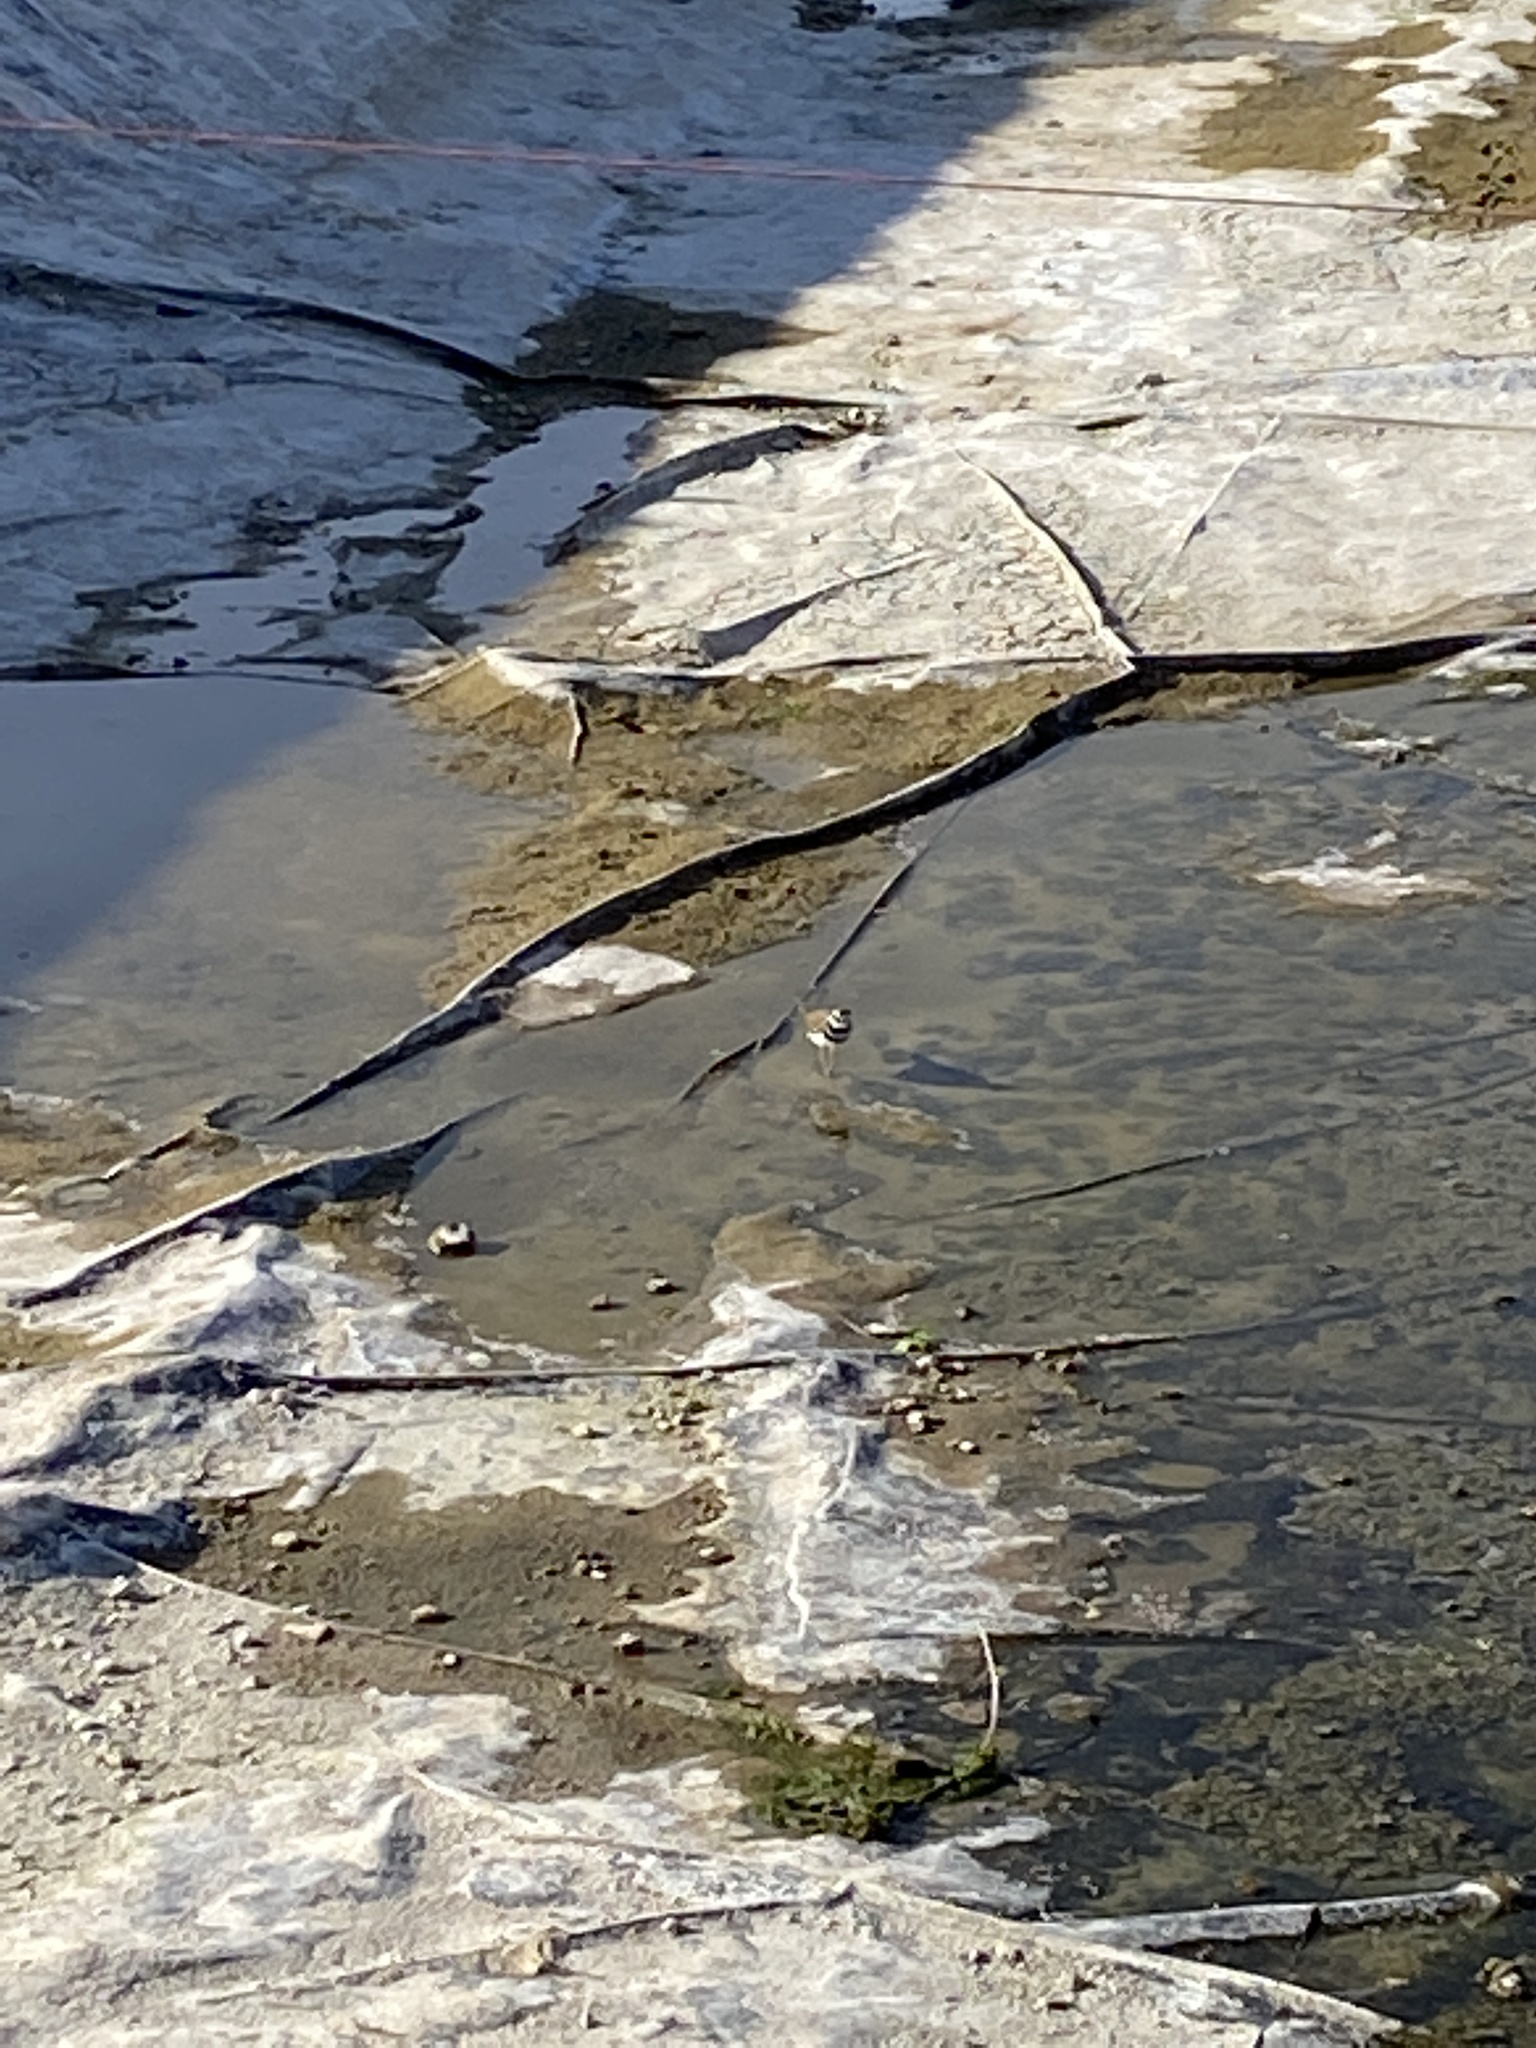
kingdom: Animalia
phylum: Chordata
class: Aves
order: Charadriiformes
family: Charadriidae
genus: Charadrius
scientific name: Charadrius vociferus
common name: Killdeer
